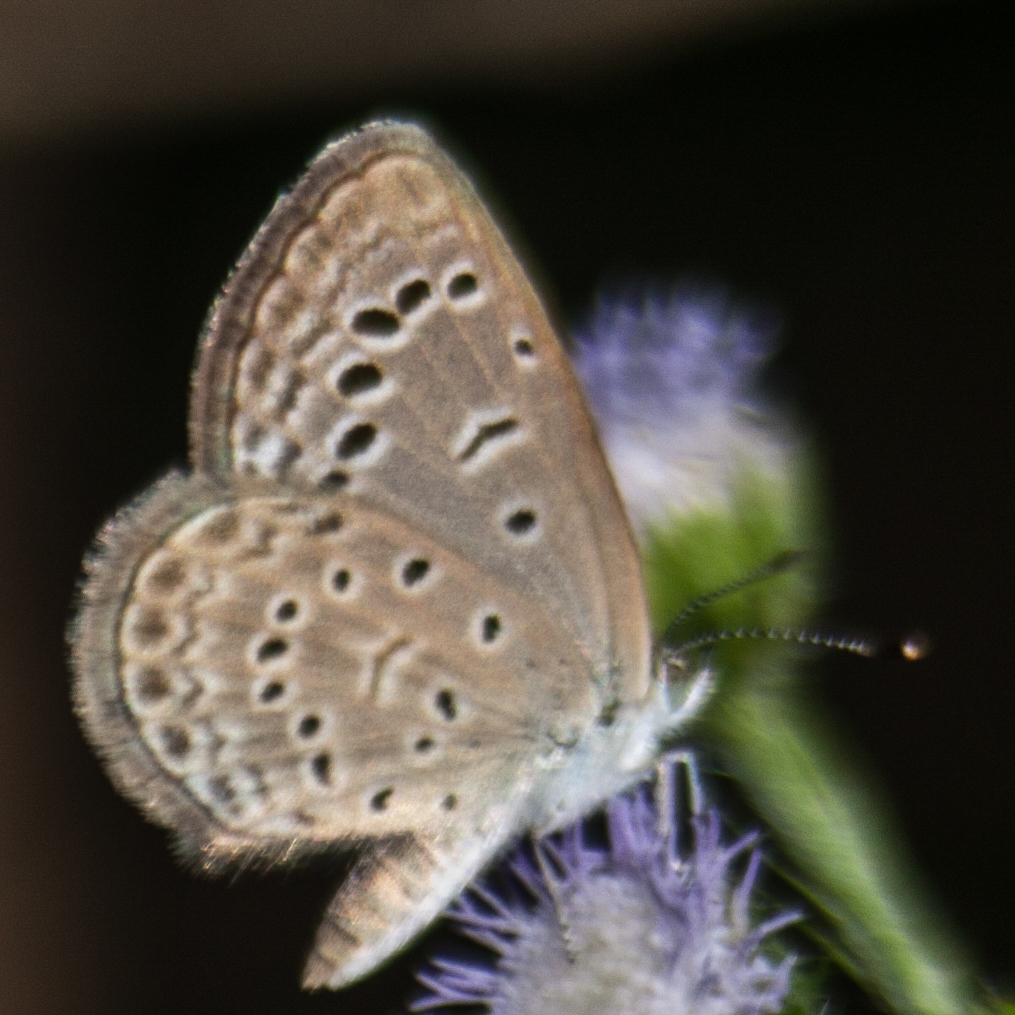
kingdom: Animalia
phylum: Arthropoda
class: Insecta
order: Lepidoptera
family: Lycaenidae
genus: Zizeeria
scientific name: Zizeeria karsandra
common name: Dark grass blue
